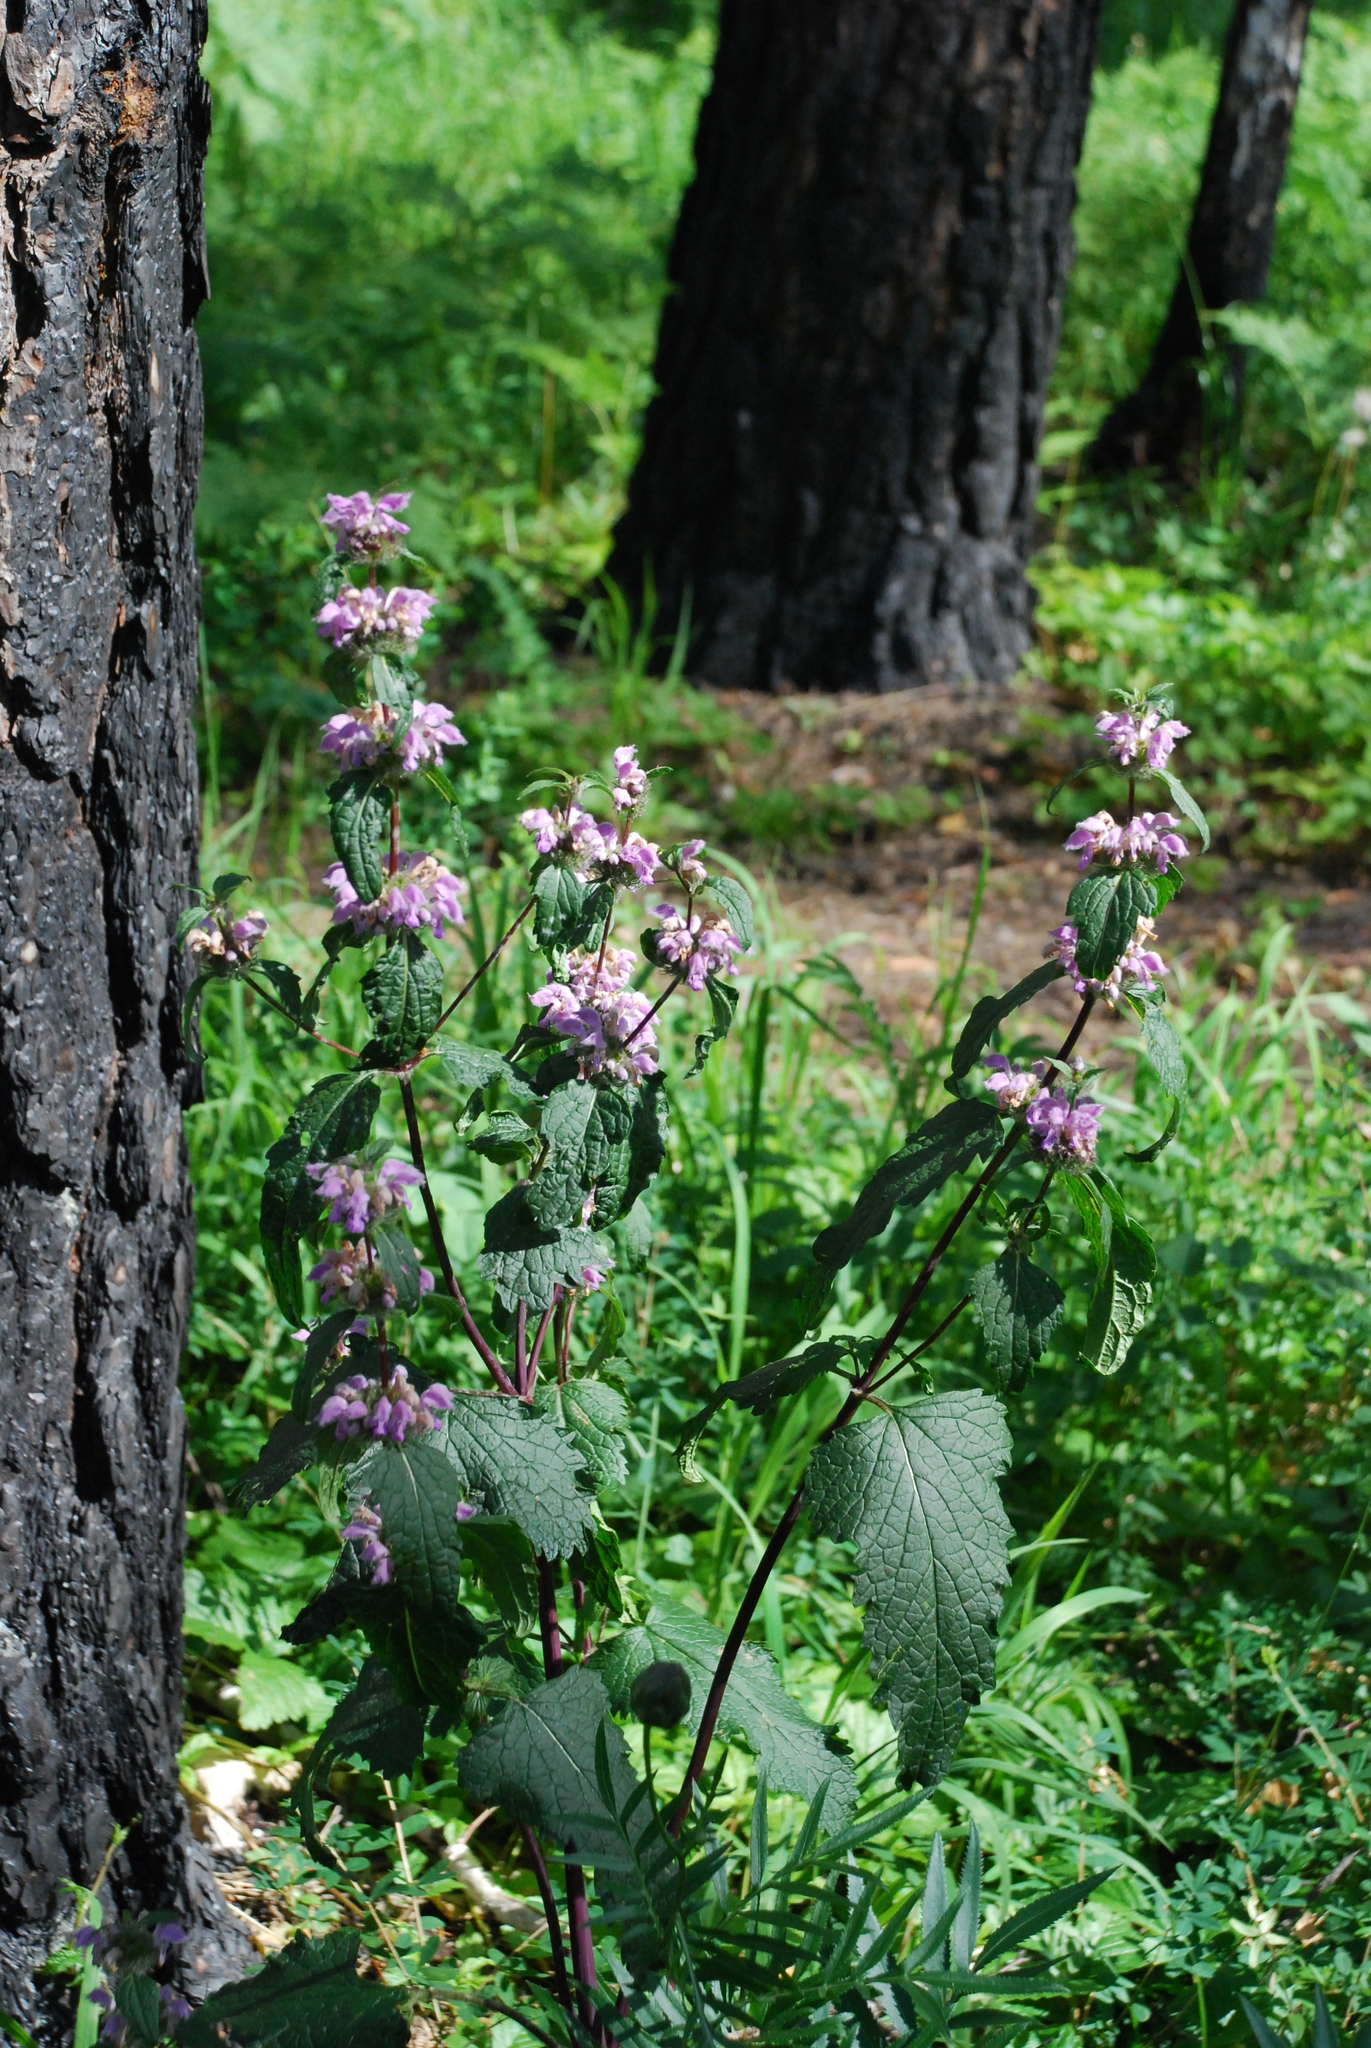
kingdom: Plantae
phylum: Tracheophyta
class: Magnoliopsida
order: Lamiales
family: Lamiaceae
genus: Phlomoides
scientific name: Phlomoides tuberosa
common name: Tuberous jerusalem sage
